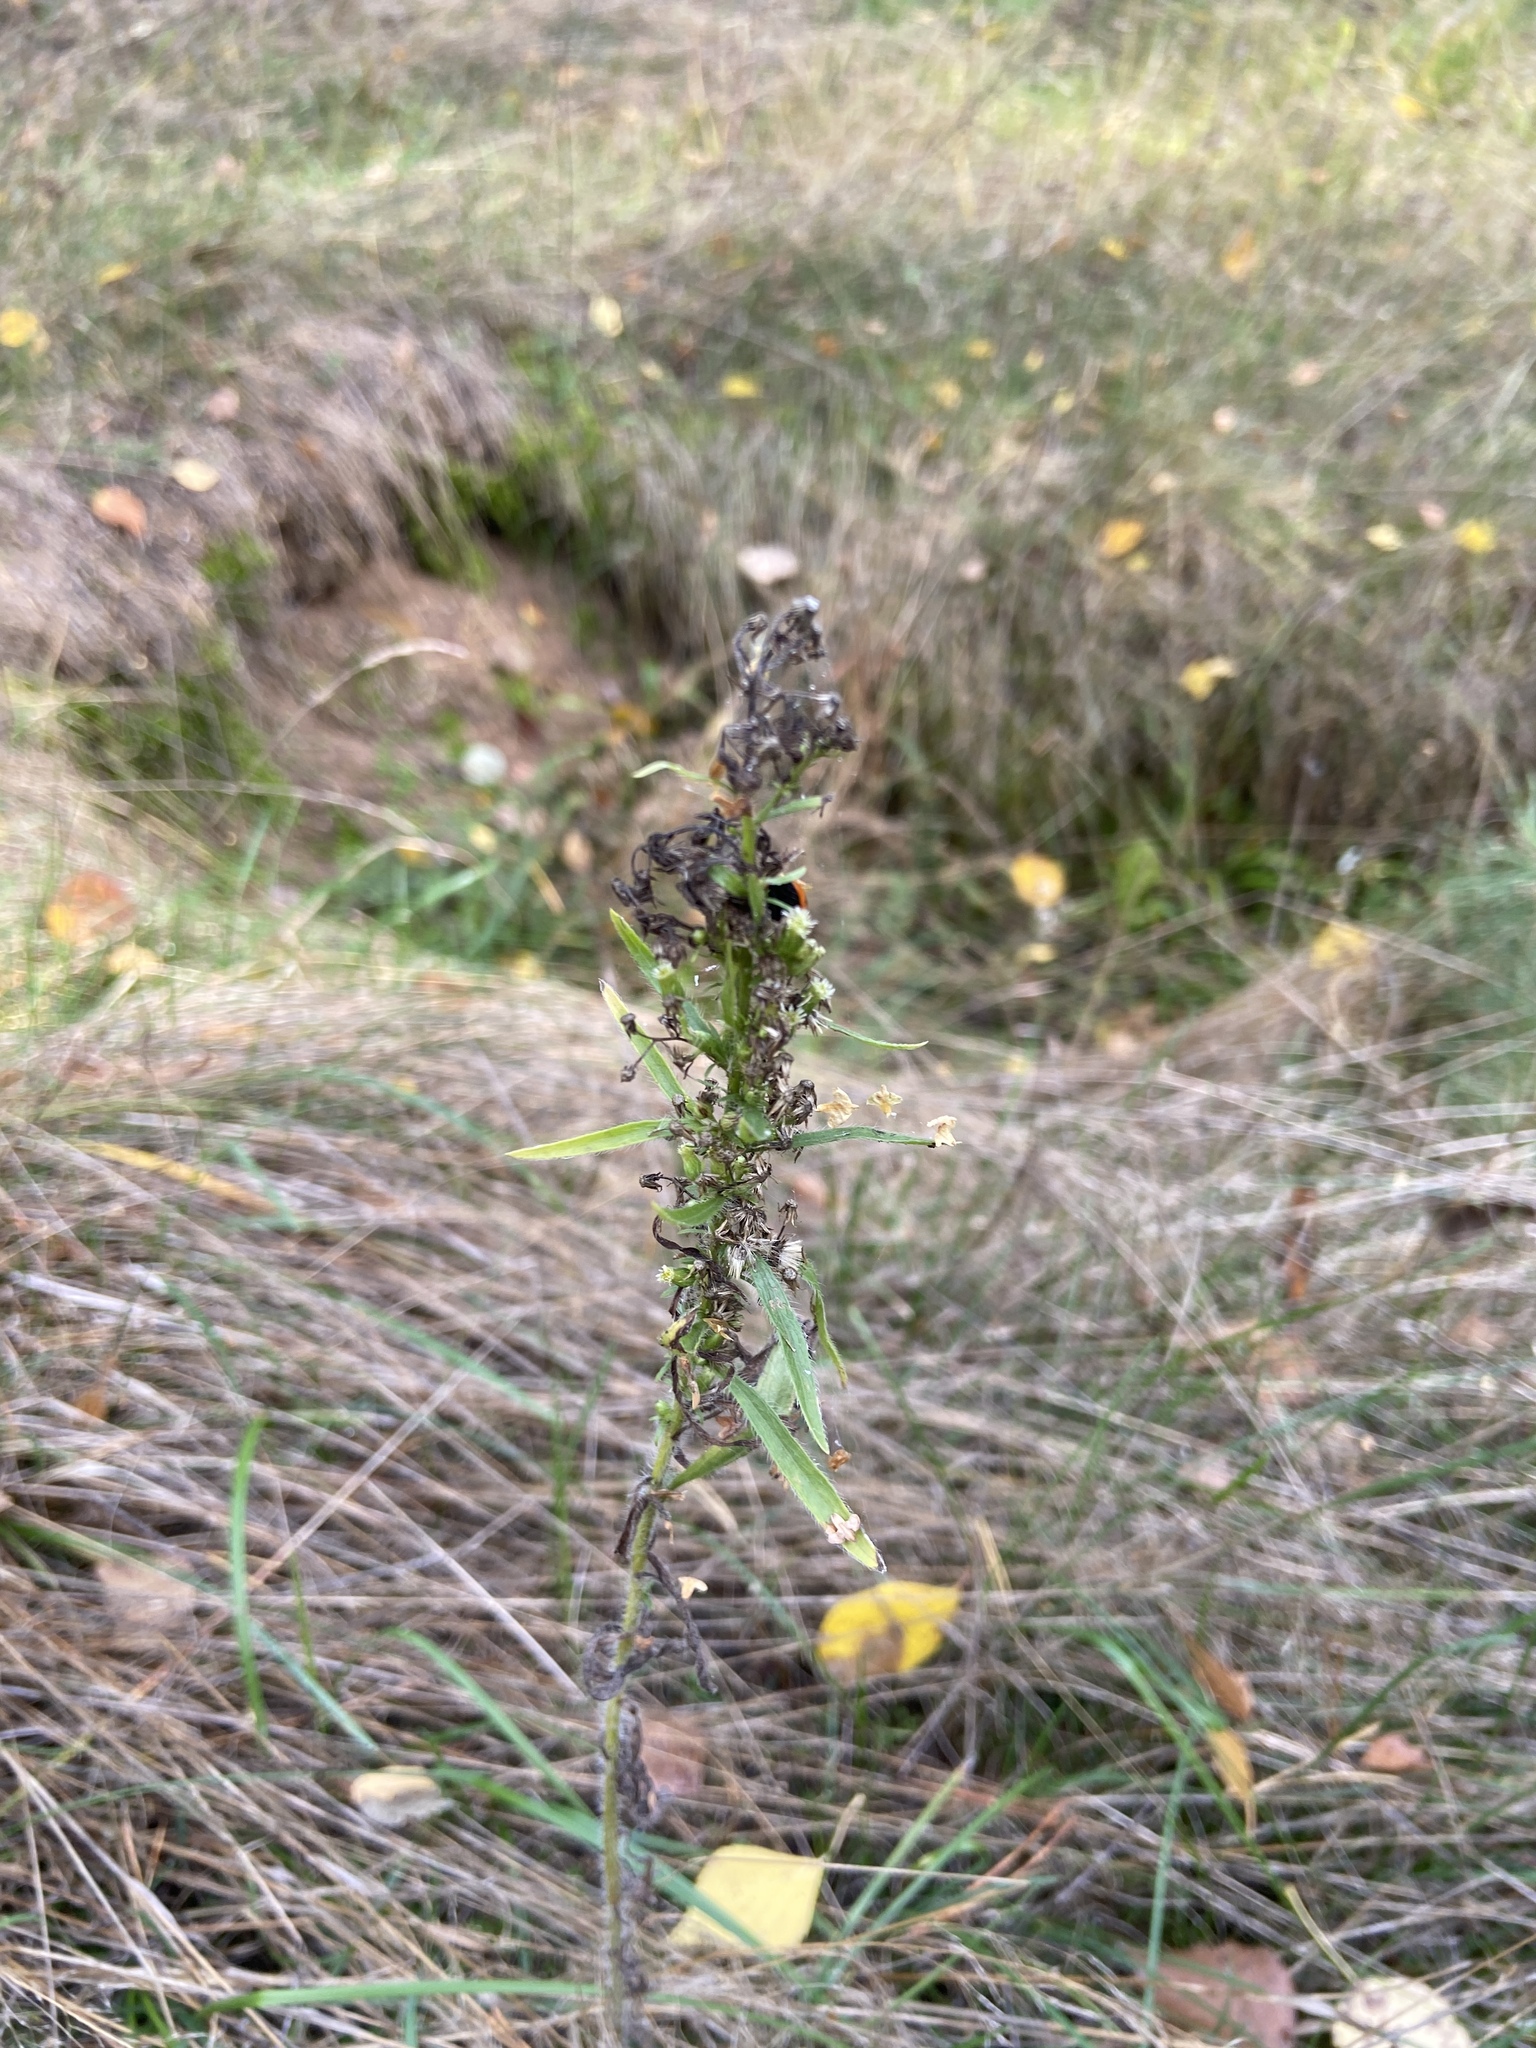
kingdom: Plantae
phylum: Tracheophyta
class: Magnoliopsida
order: Asterales
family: Asteraceae
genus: Omalotheca
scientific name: Omalotheca sylvatica
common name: Heath cudweed
